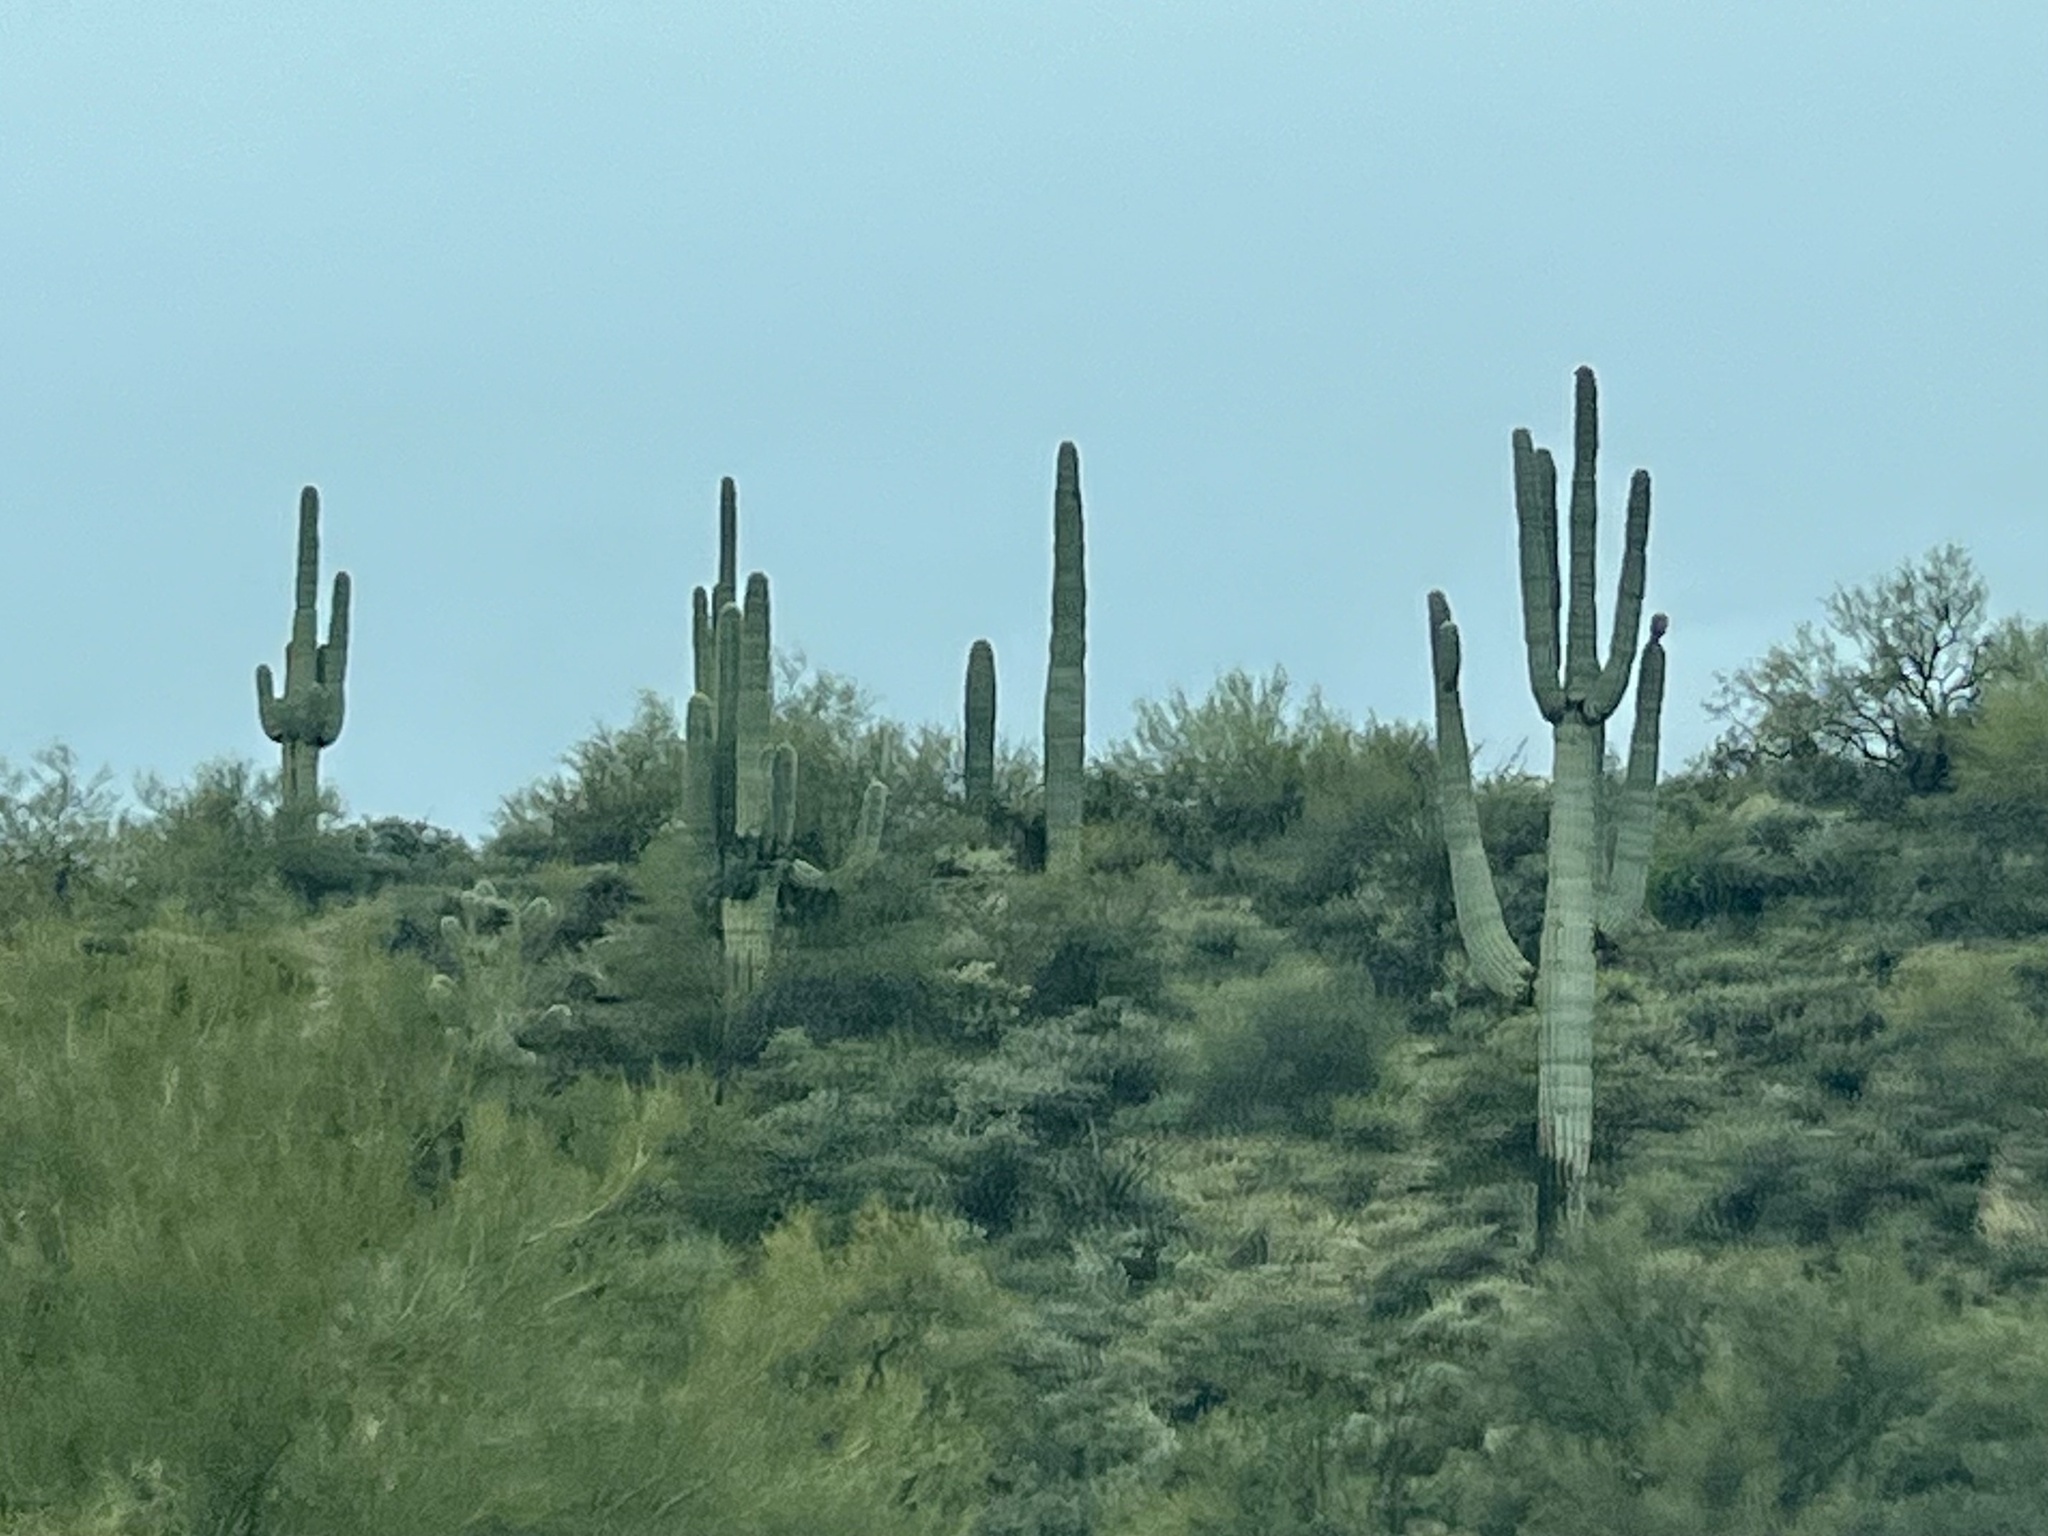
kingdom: Plantae
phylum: Tracheophyta
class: Magnoliopsida
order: Caryophyllales
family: Cactaceae
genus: Carnegiea
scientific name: Carnegiea gigantea
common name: Saguaro
